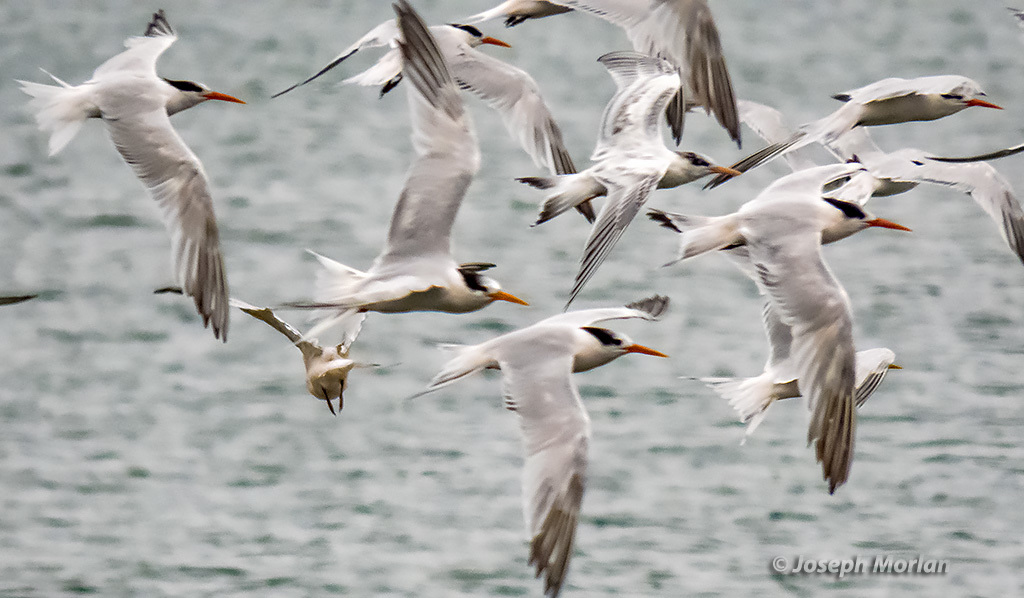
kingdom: Animalia
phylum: Chordata
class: Aves
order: Charadriiformes
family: Laridae
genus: Thalasseus
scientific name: Thalasseus elegans
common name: Elegant tern
